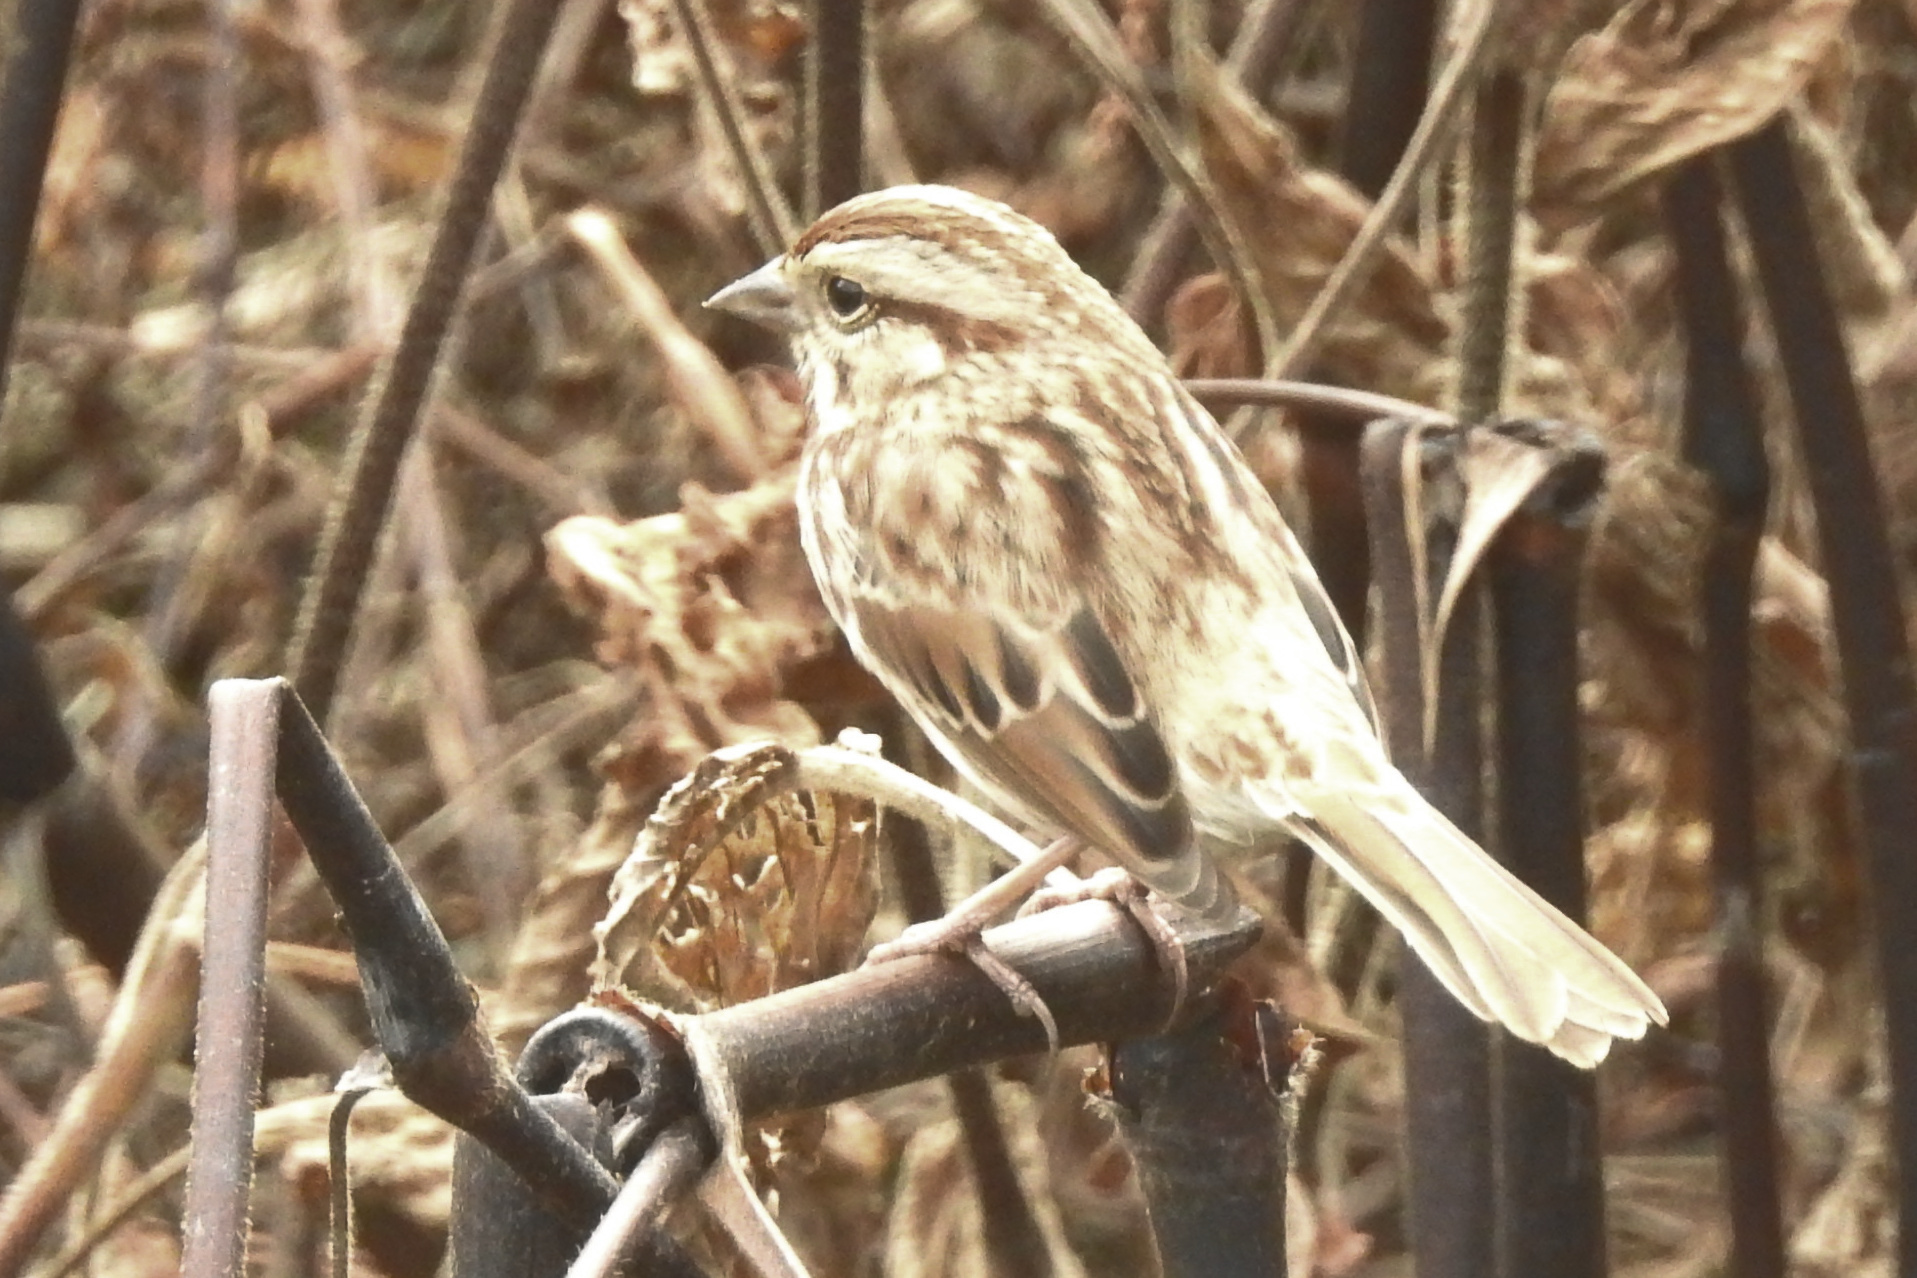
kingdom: Animalia
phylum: Chordata
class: Aves
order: Passeriformes
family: Passerellidae
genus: Melospiza
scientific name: Melospiza melodia
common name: Song sparrow
